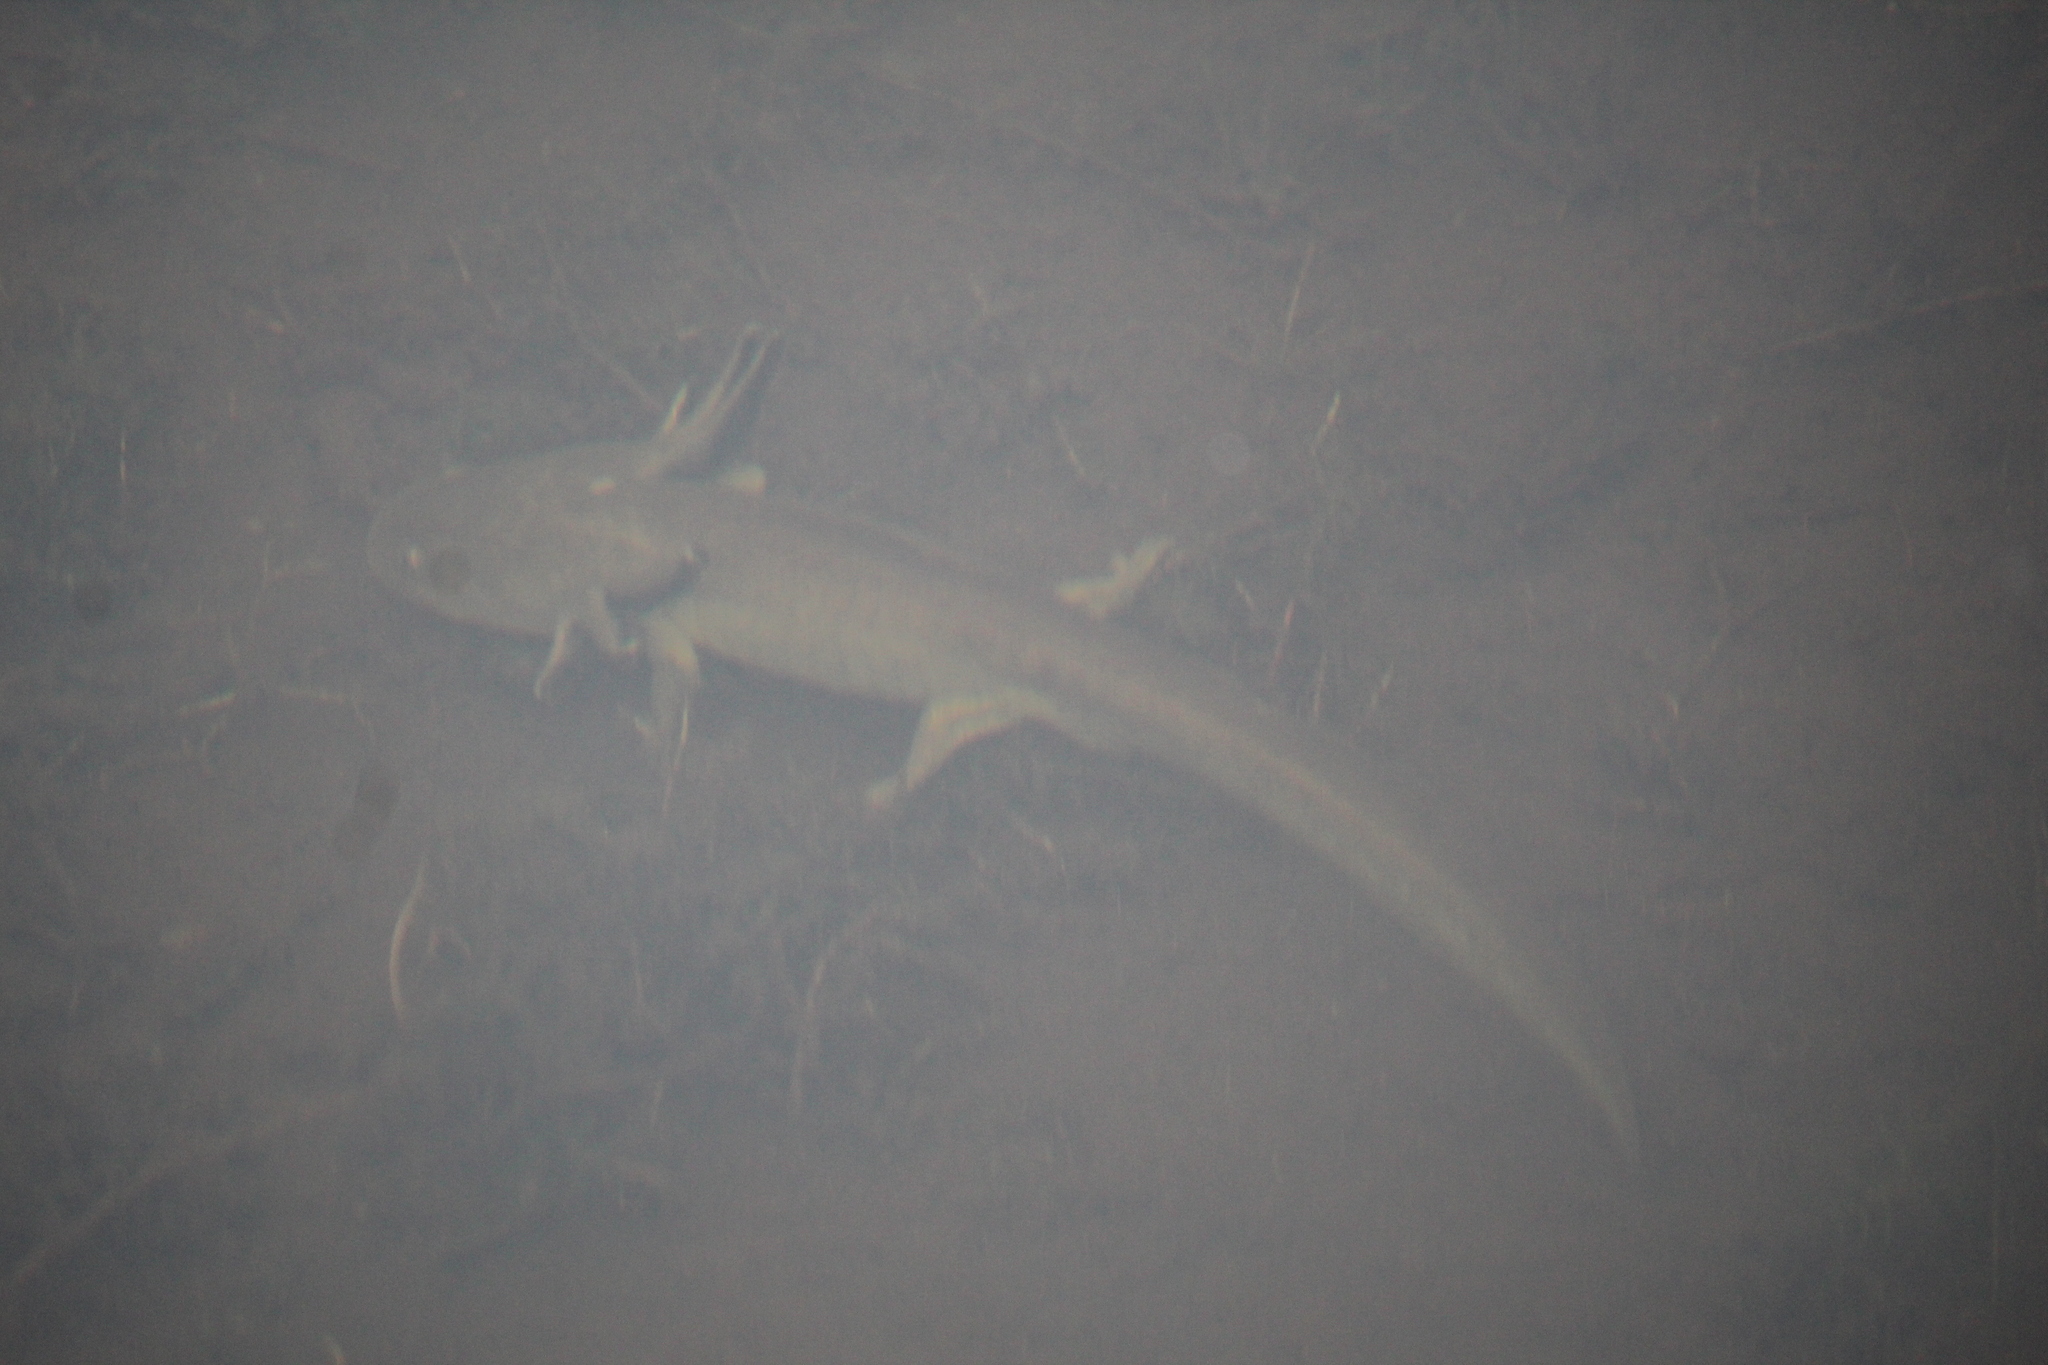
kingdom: Animalia
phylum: Chordata
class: Amphibia
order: Caudata
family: Ambystomatidae
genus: Ambystoma
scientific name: Ambystoma mavortium
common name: Western tiger salamander
